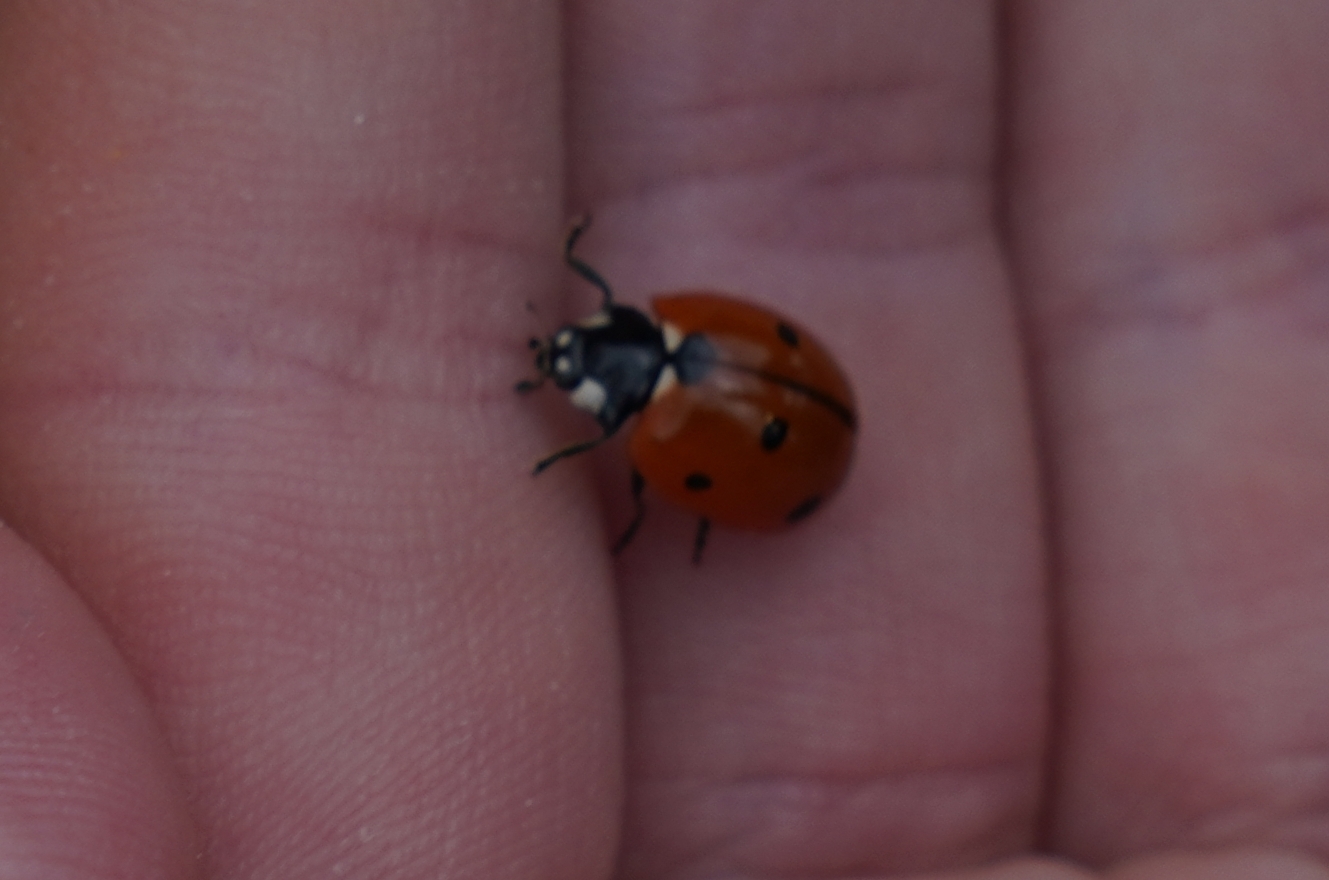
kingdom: Animalia
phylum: Arthropoda
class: Insecta
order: Coleoptera
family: Coccinellidae
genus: Coccinella
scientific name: Coccinella septempunctata
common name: Sevenspotted lady beetle
